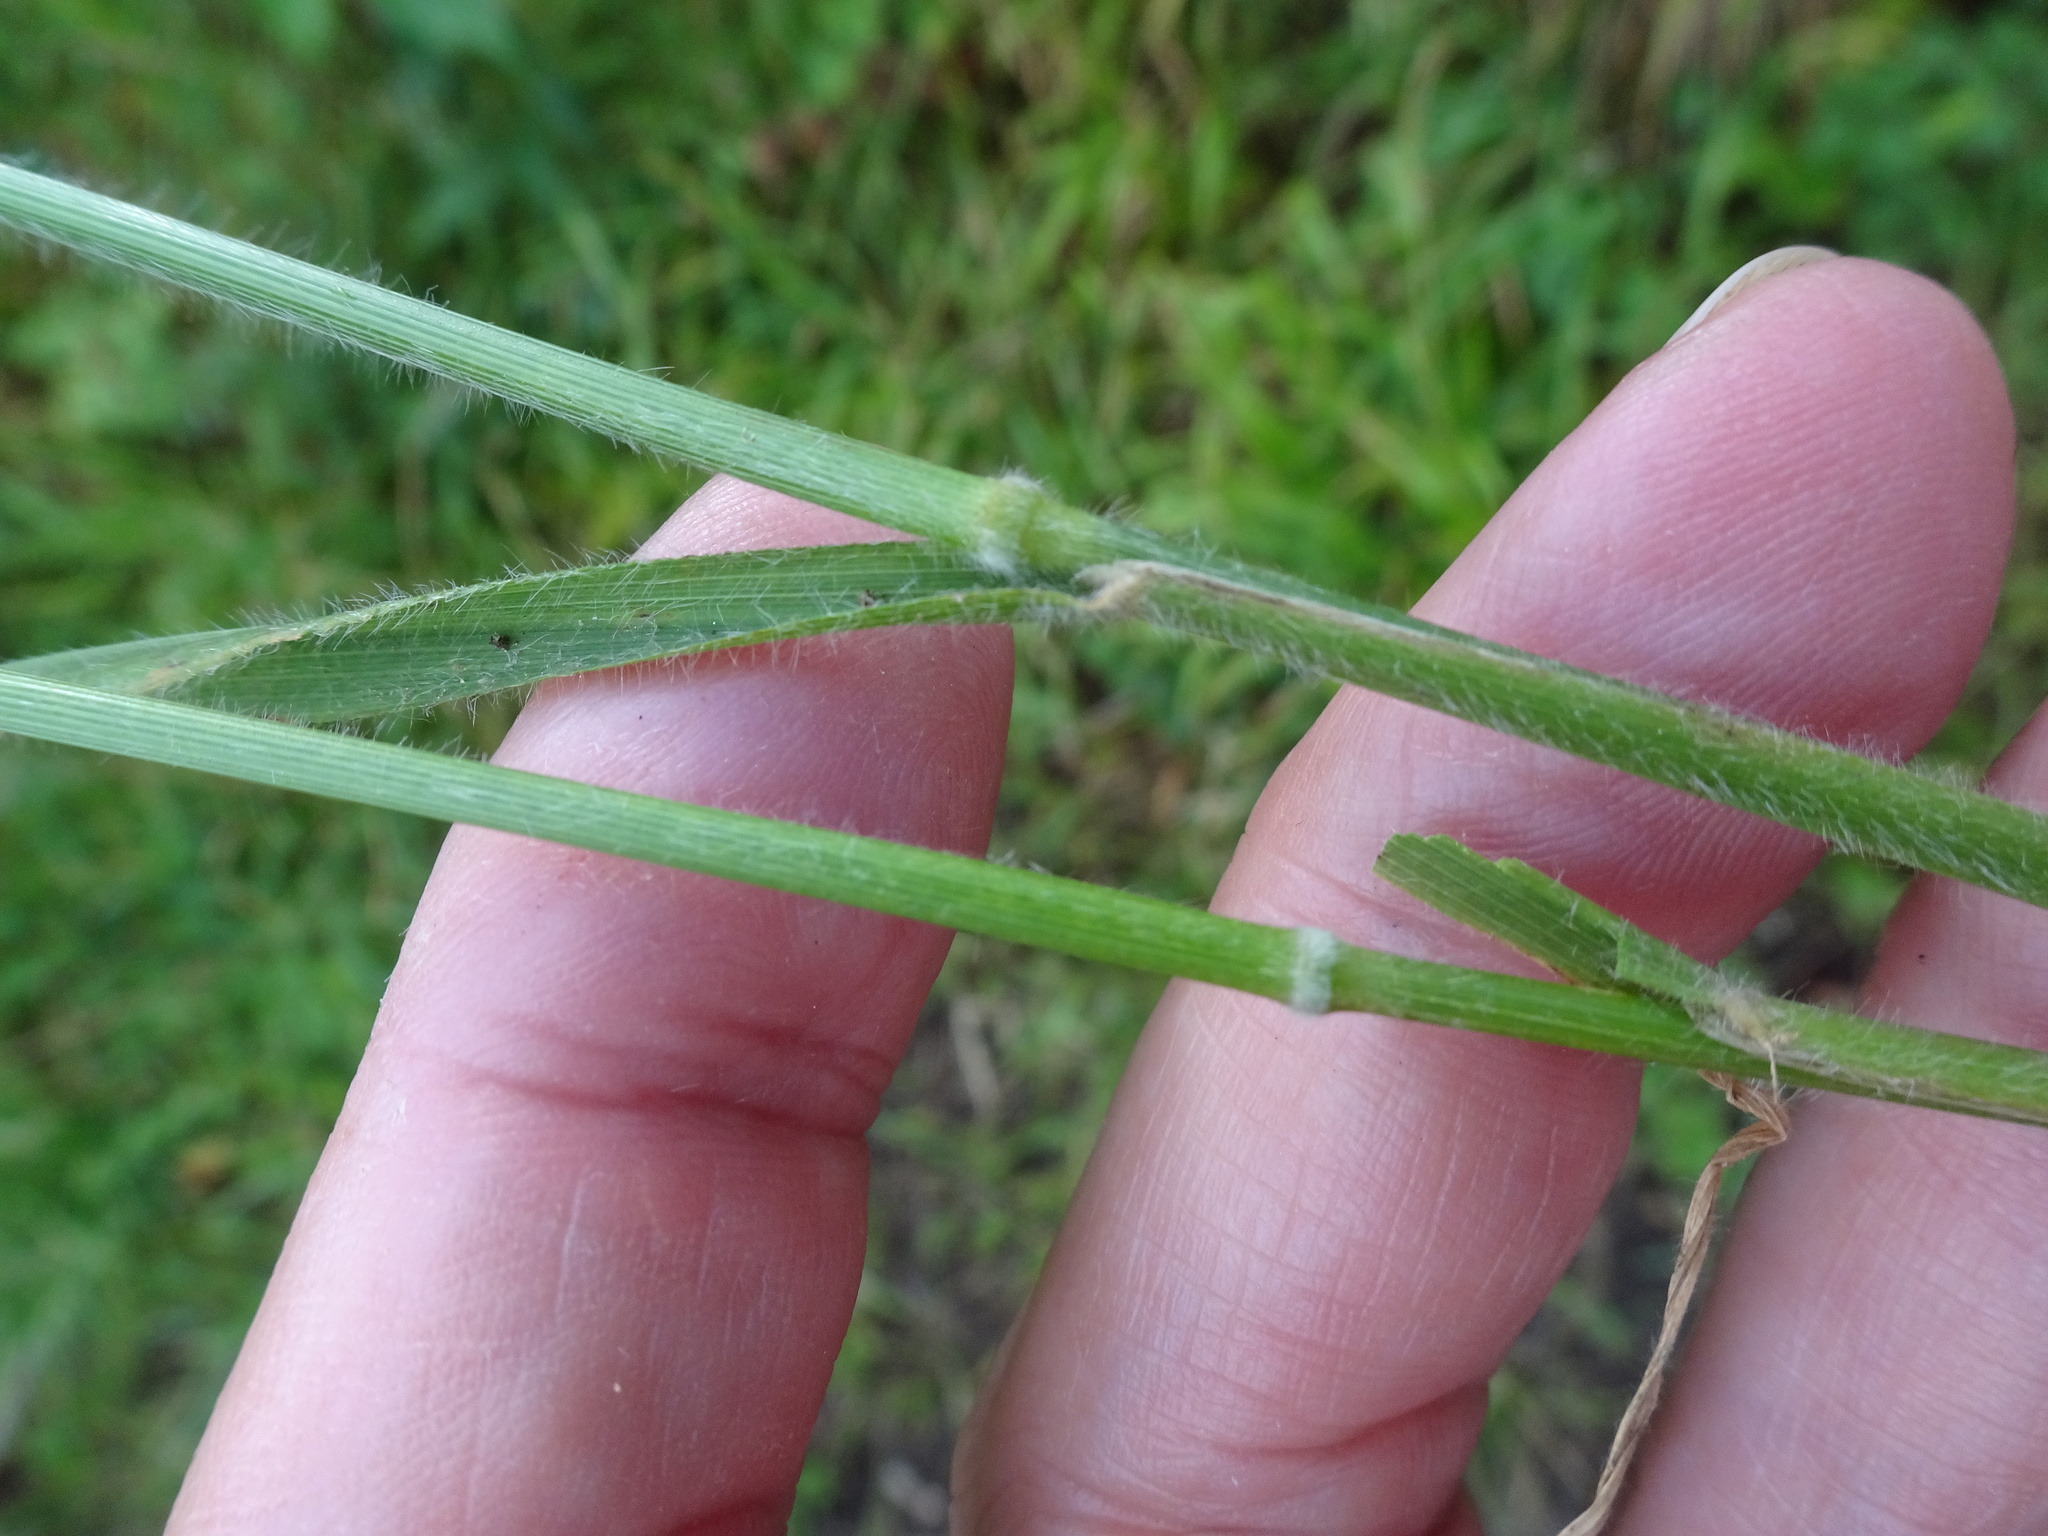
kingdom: Plantae
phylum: Tracheophyta
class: Liliopsida
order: Poales
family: Poaceae
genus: Brachypodium
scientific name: Brachypodium sylvaticum
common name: False-brome
